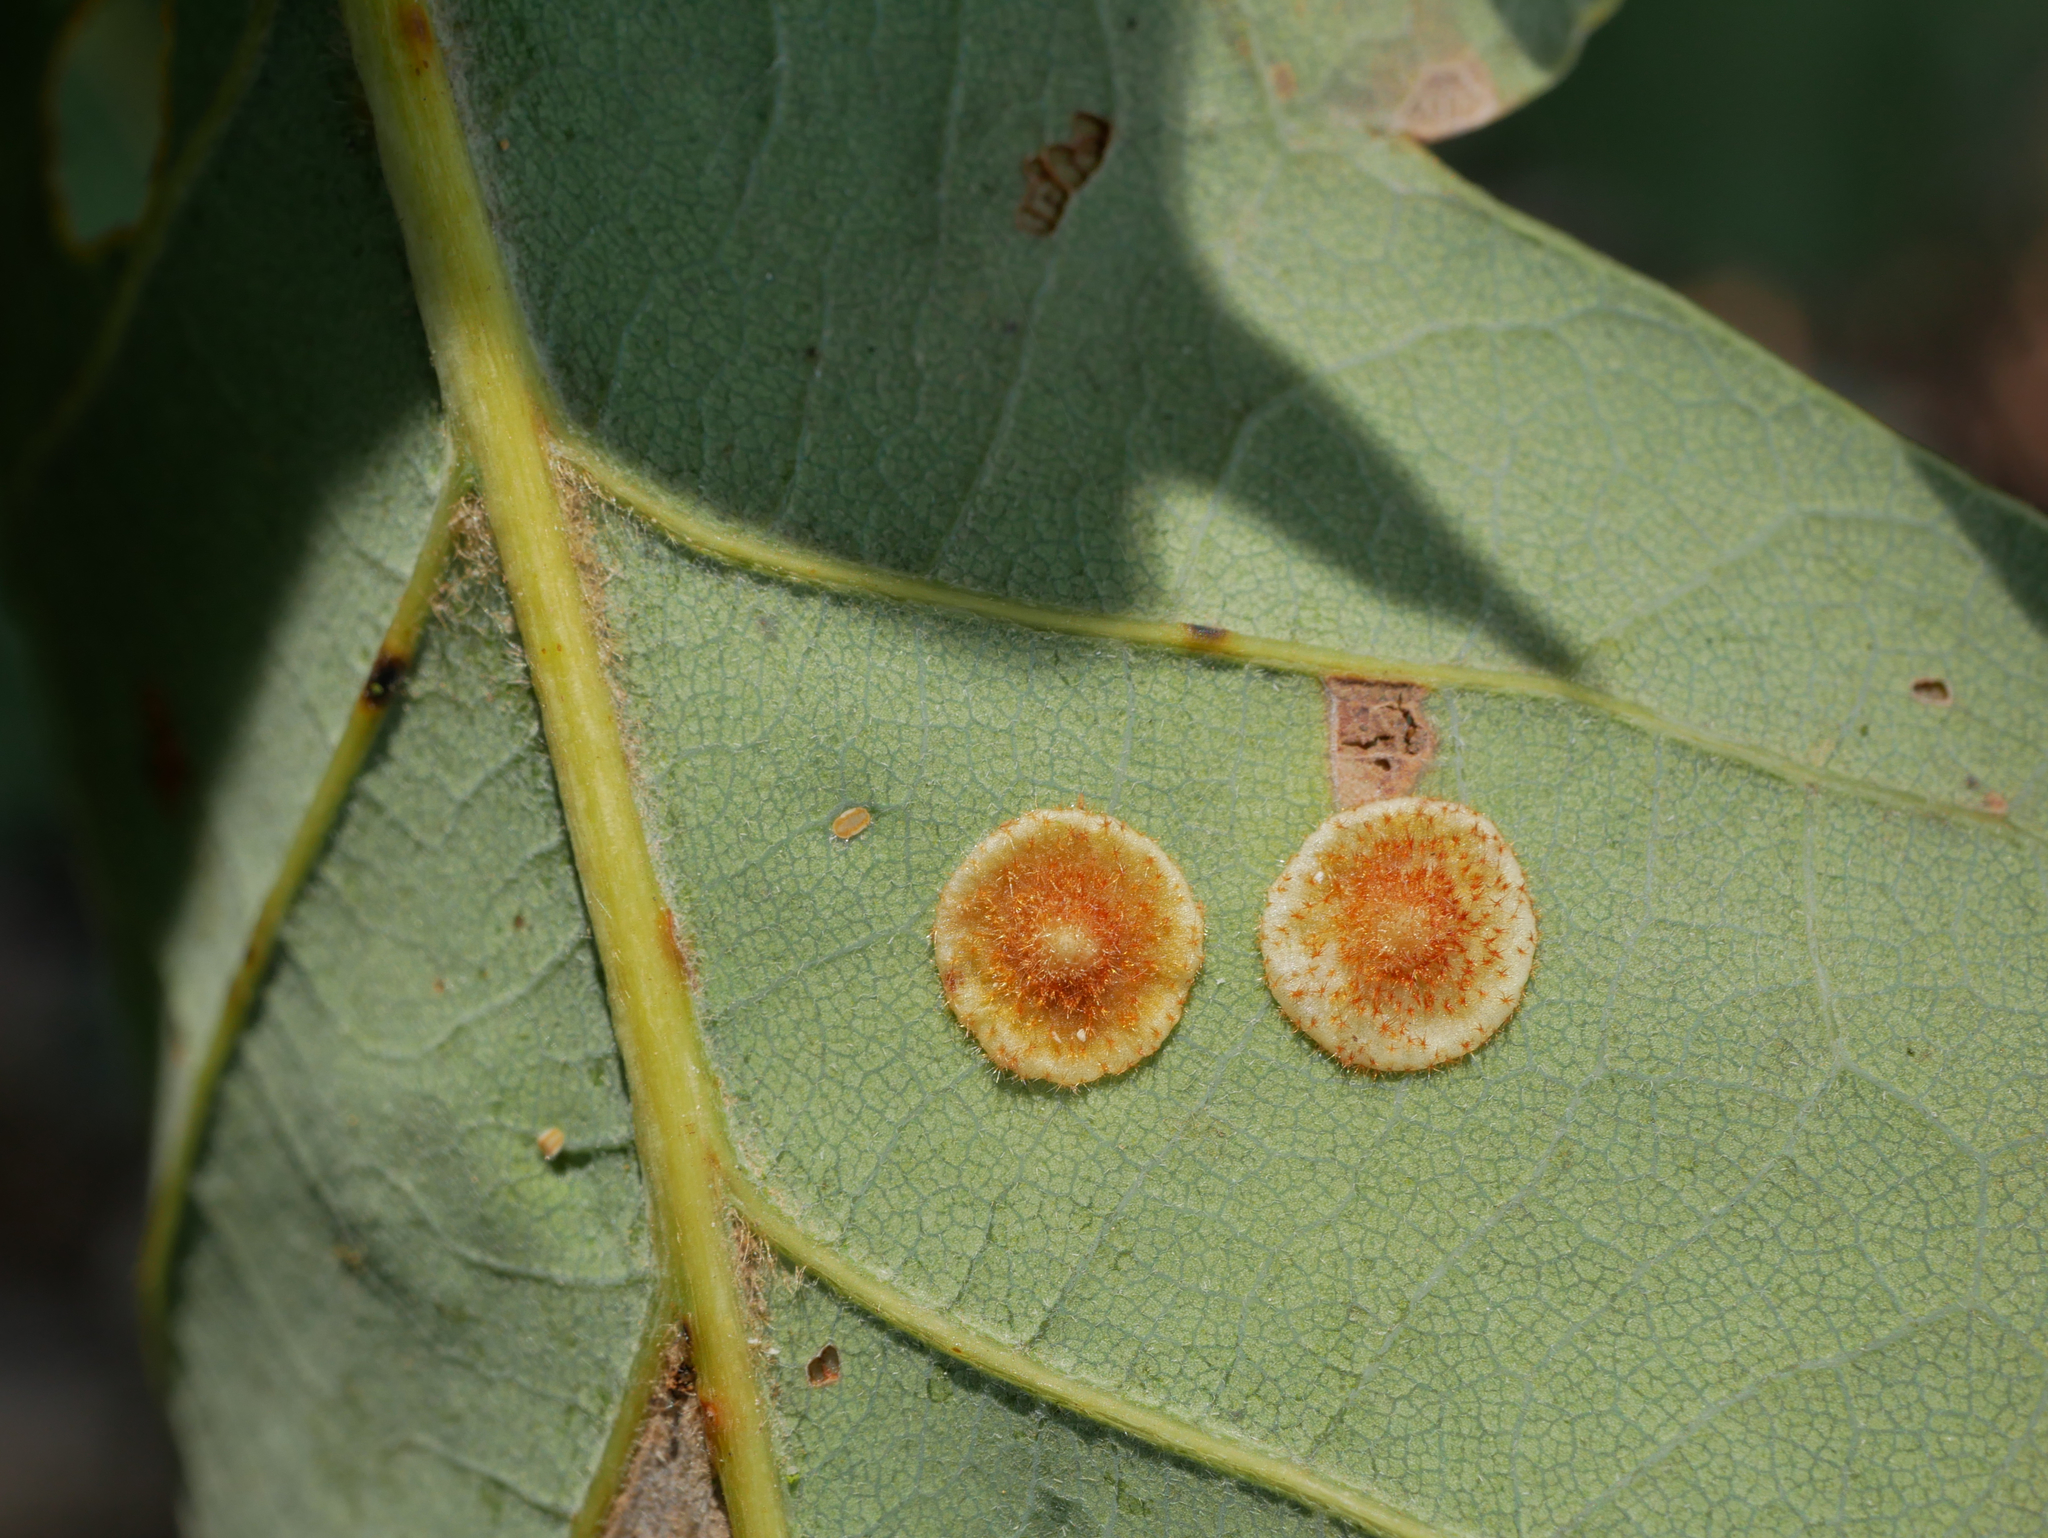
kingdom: Animalia
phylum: Arthropoda
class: Insecta
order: Hymenoptera
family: Cynipidae
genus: Neuroterus
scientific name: Neuroterus quercusbaccarum
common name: Common spangle gall
